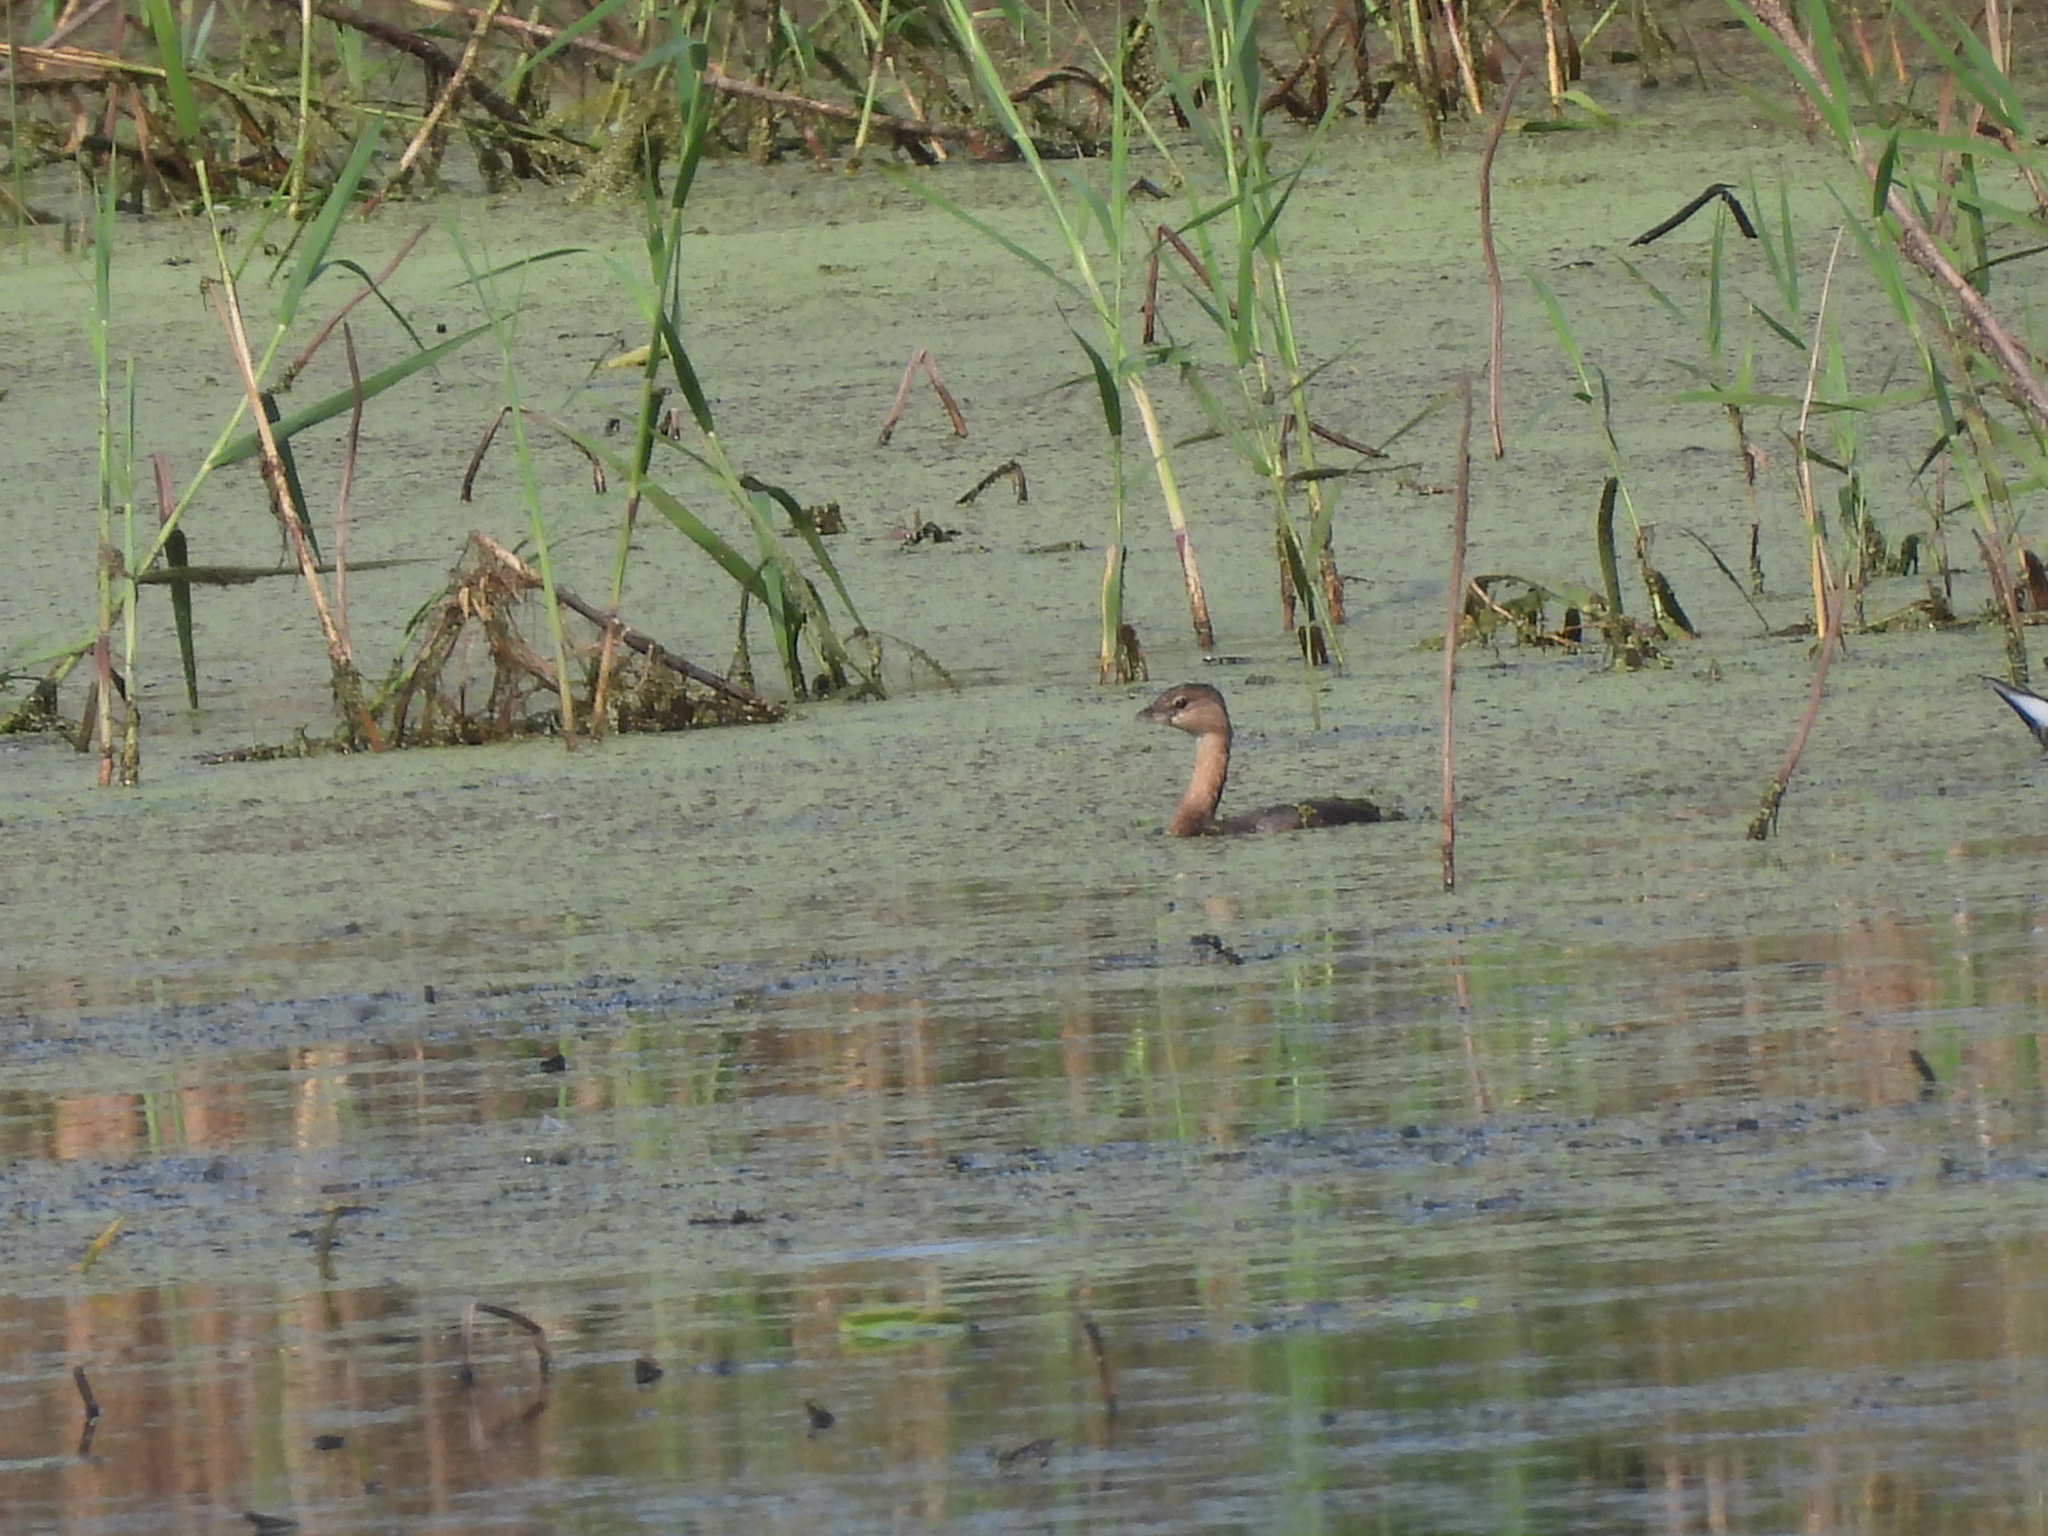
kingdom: Animalia
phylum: Chordata
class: Aves
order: Podicipediformes
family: Podicipedidae
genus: Podilymbus
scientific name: Podilymbus podiceps
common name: Pied-billed grebe
